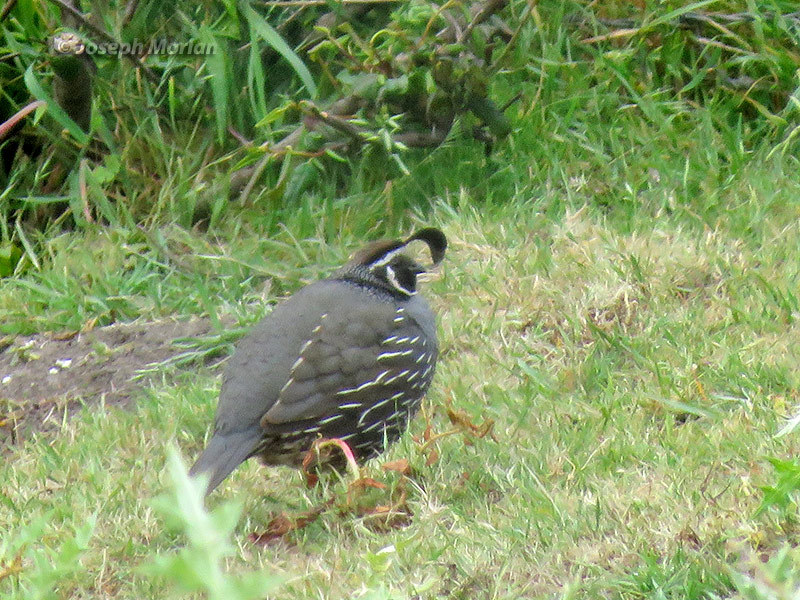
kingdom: Animalia
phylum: Chordata
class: Aves
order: Galliformes
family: Odontophoridae
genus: Callipepla
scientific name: Callipepla californica
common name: California quail
